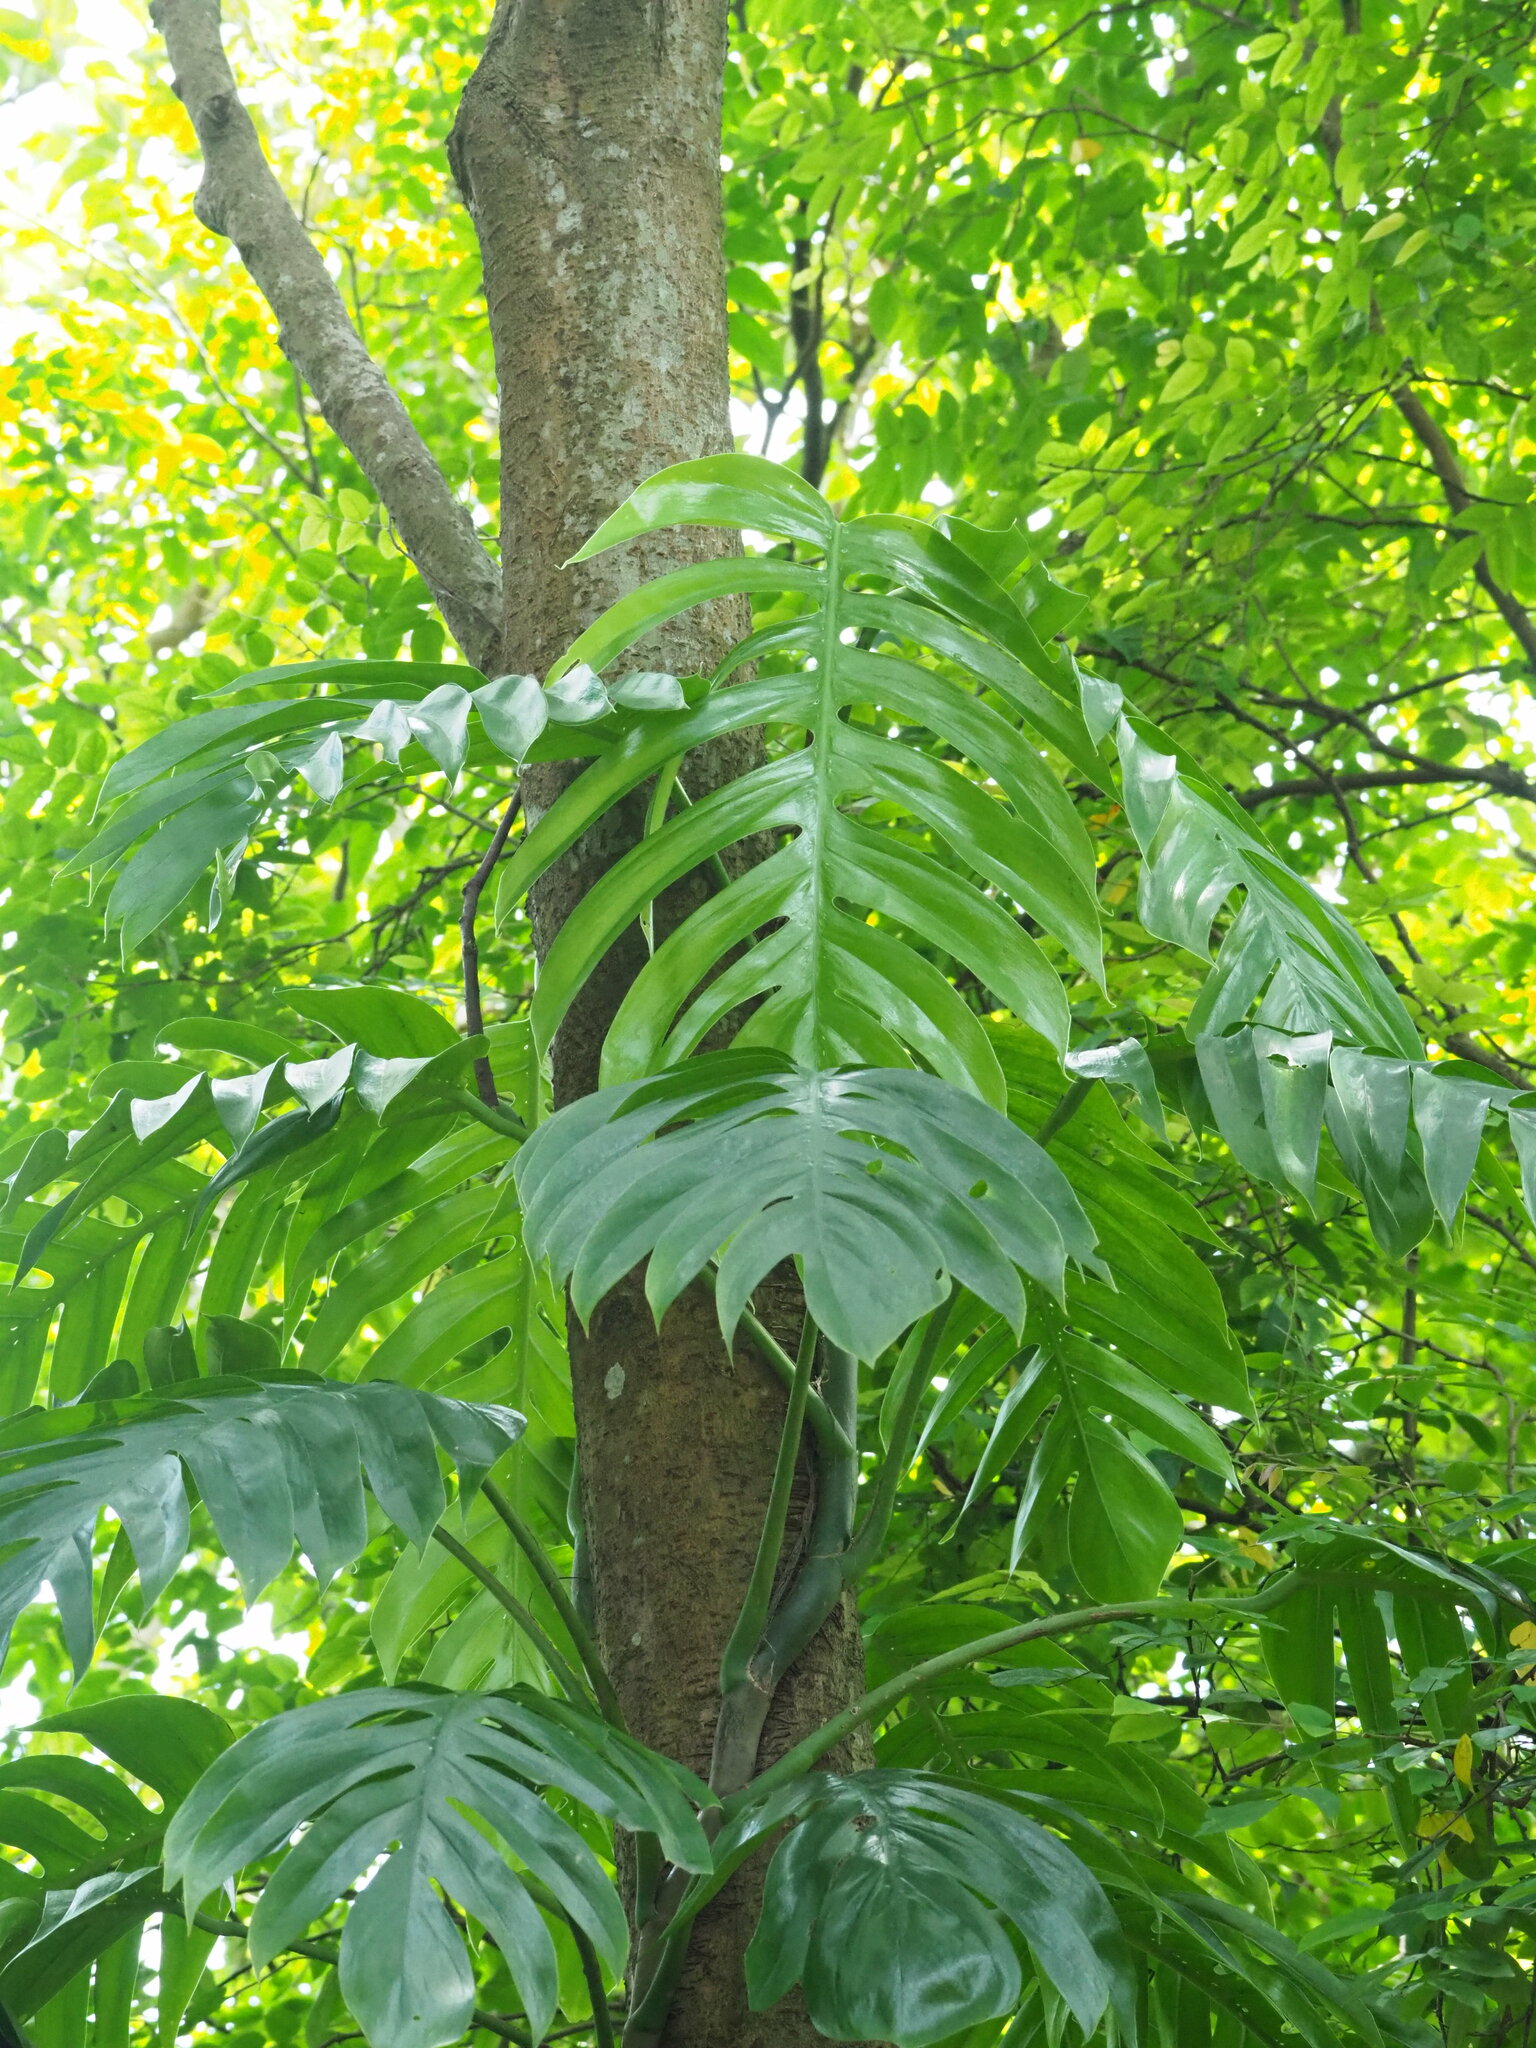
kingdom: Plantae
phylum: Tracheophyta
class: Liliopsida
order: Alismatales
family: Araceae
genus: Epipremnum
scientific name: Epipremnum pinnatum
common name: Centipede tongavine
